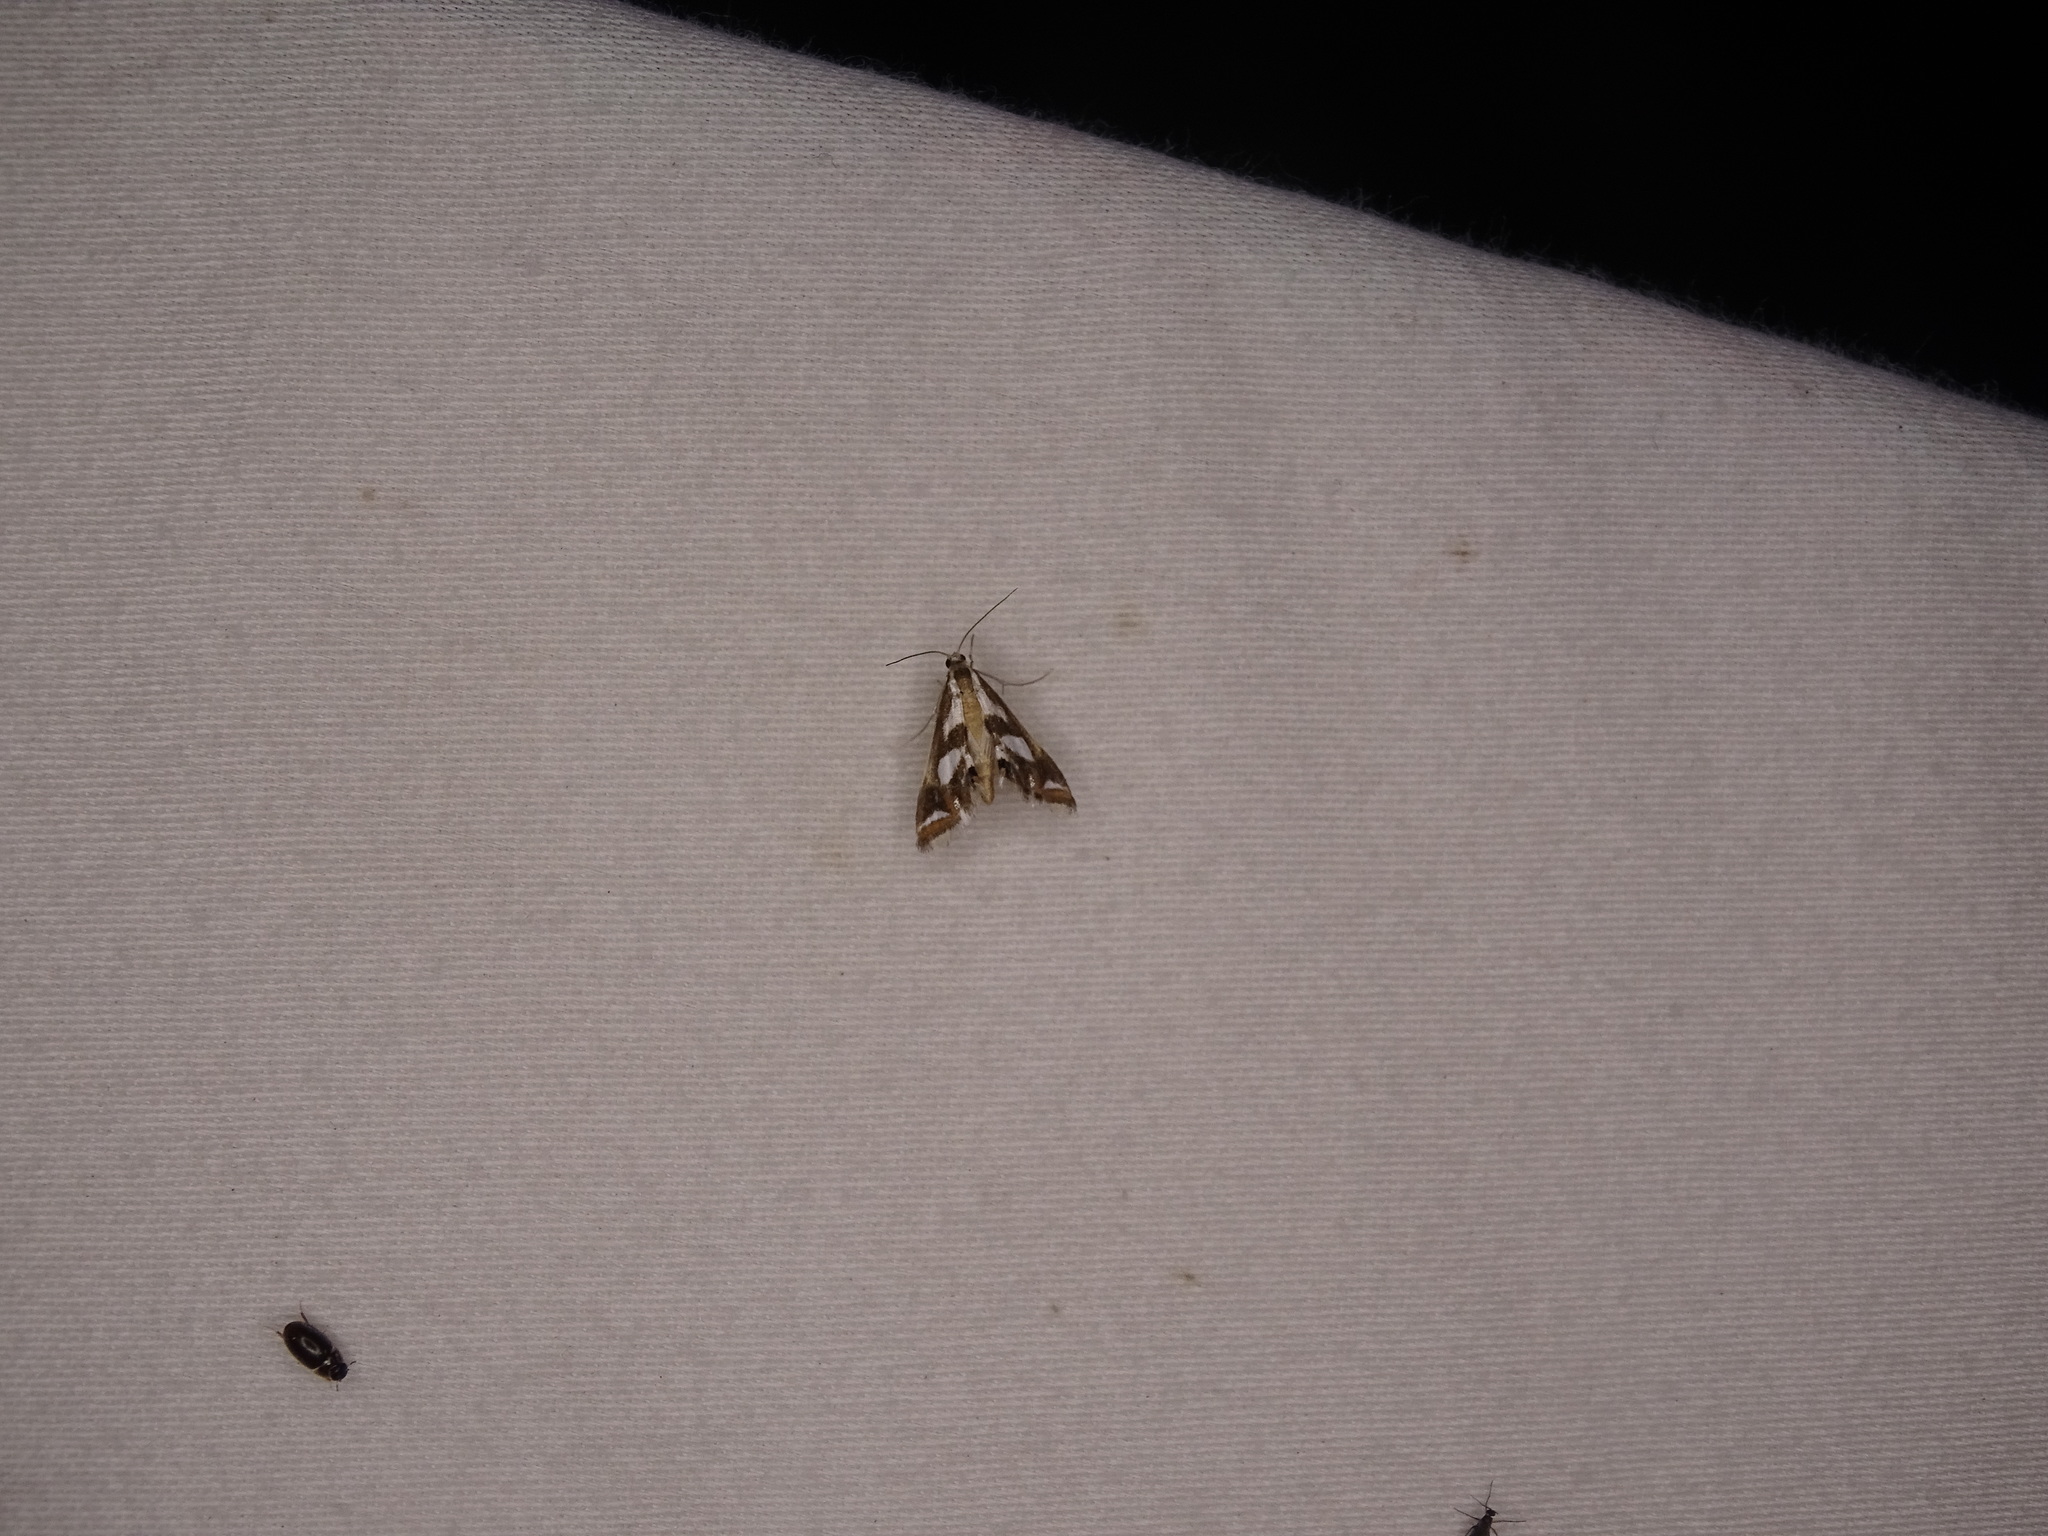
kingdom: Animalia
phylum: Arthropoda
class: Insecta
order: Lepidoptera
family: Crambidae
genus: Chrysendeton
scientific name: Chrysendeton imitabilis
